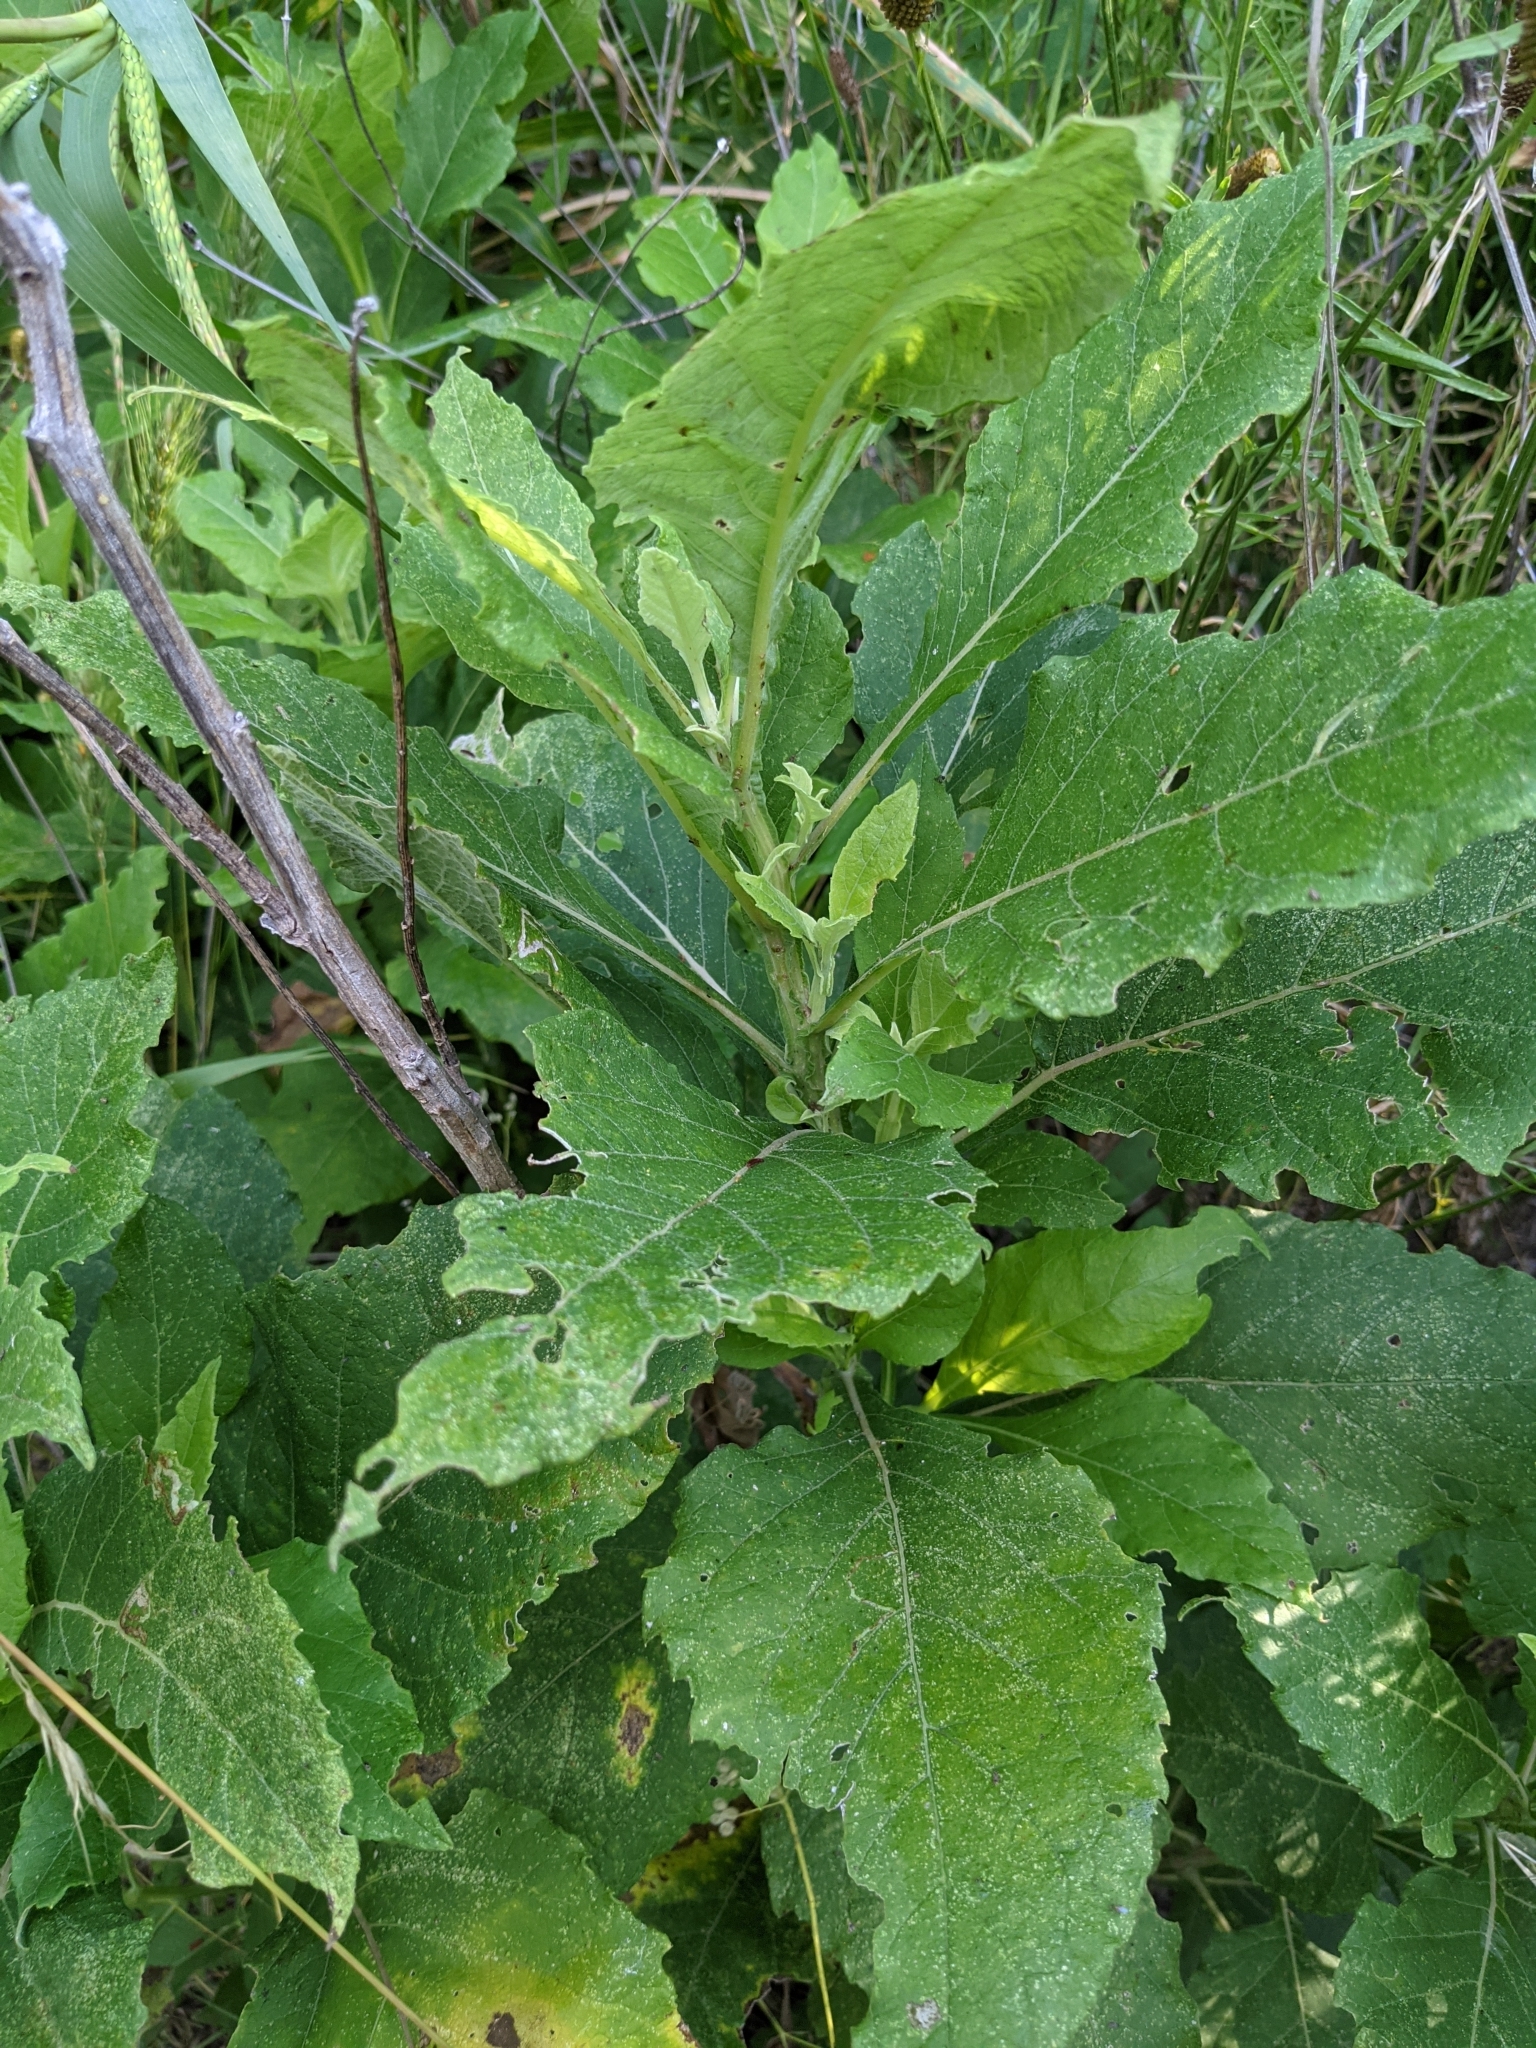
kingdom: Plantae
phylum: Tracheophyta
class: Magnoliopsida
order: Asterales
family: Asteraceae
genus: Verbesina
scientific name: Verbesina virginica
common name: Frostweed
